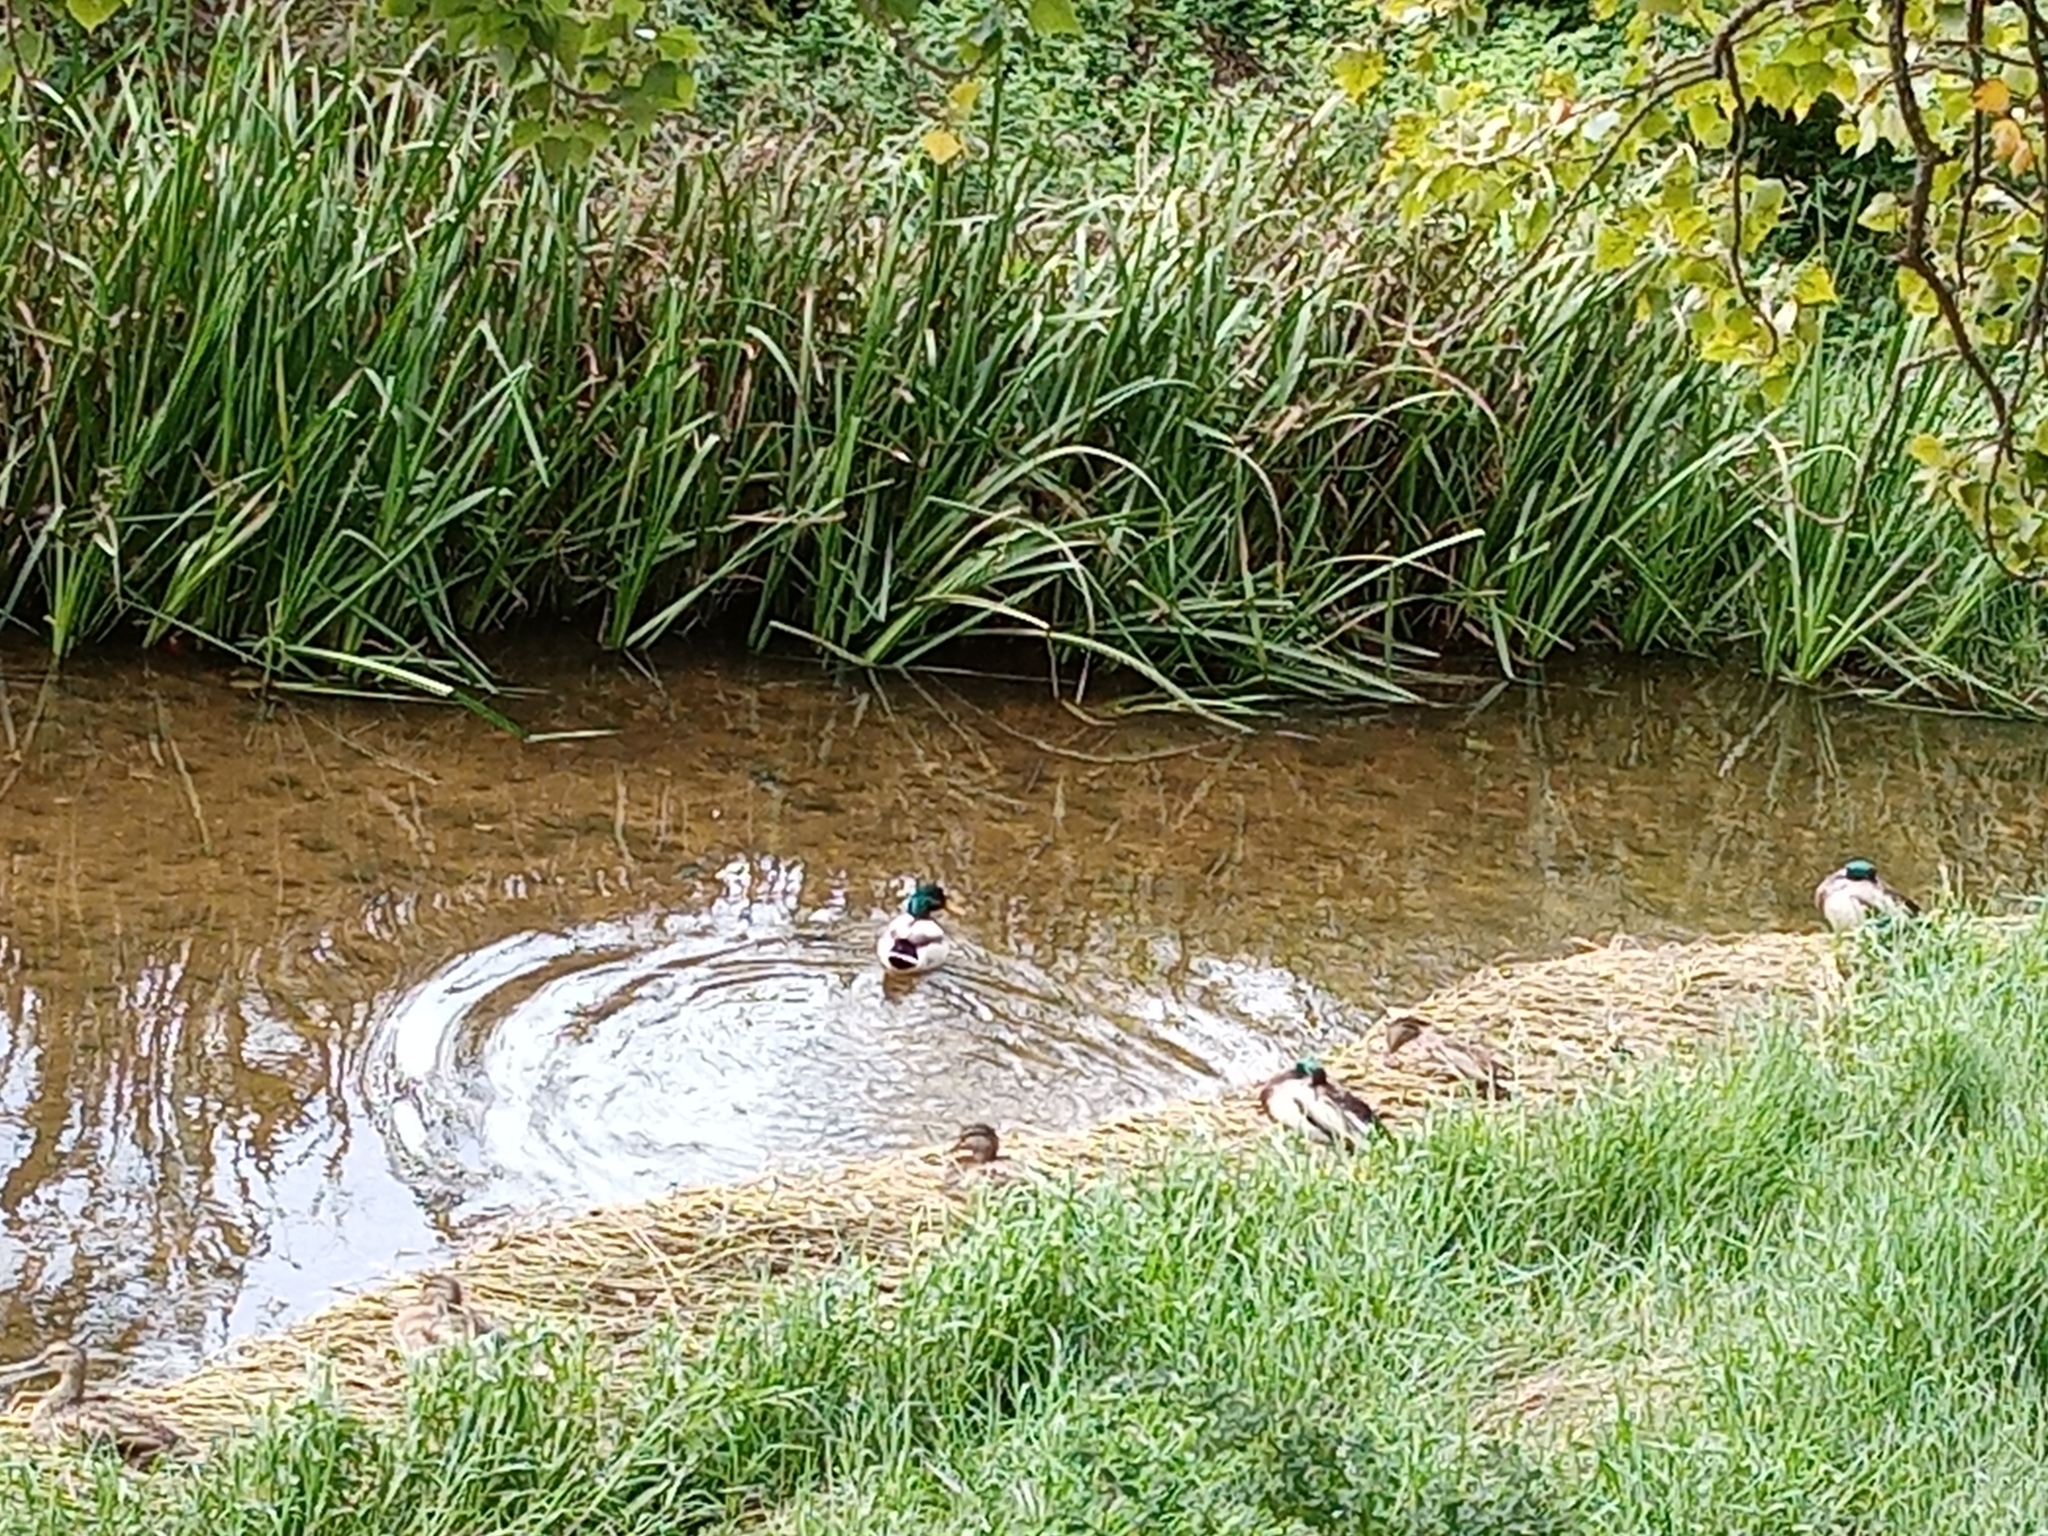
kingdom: Animalia
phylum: Chordata
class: Aves
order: Anseriformes
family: Anatidae
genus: Anas
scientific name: Anas platyrhynchos
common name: Mallard
